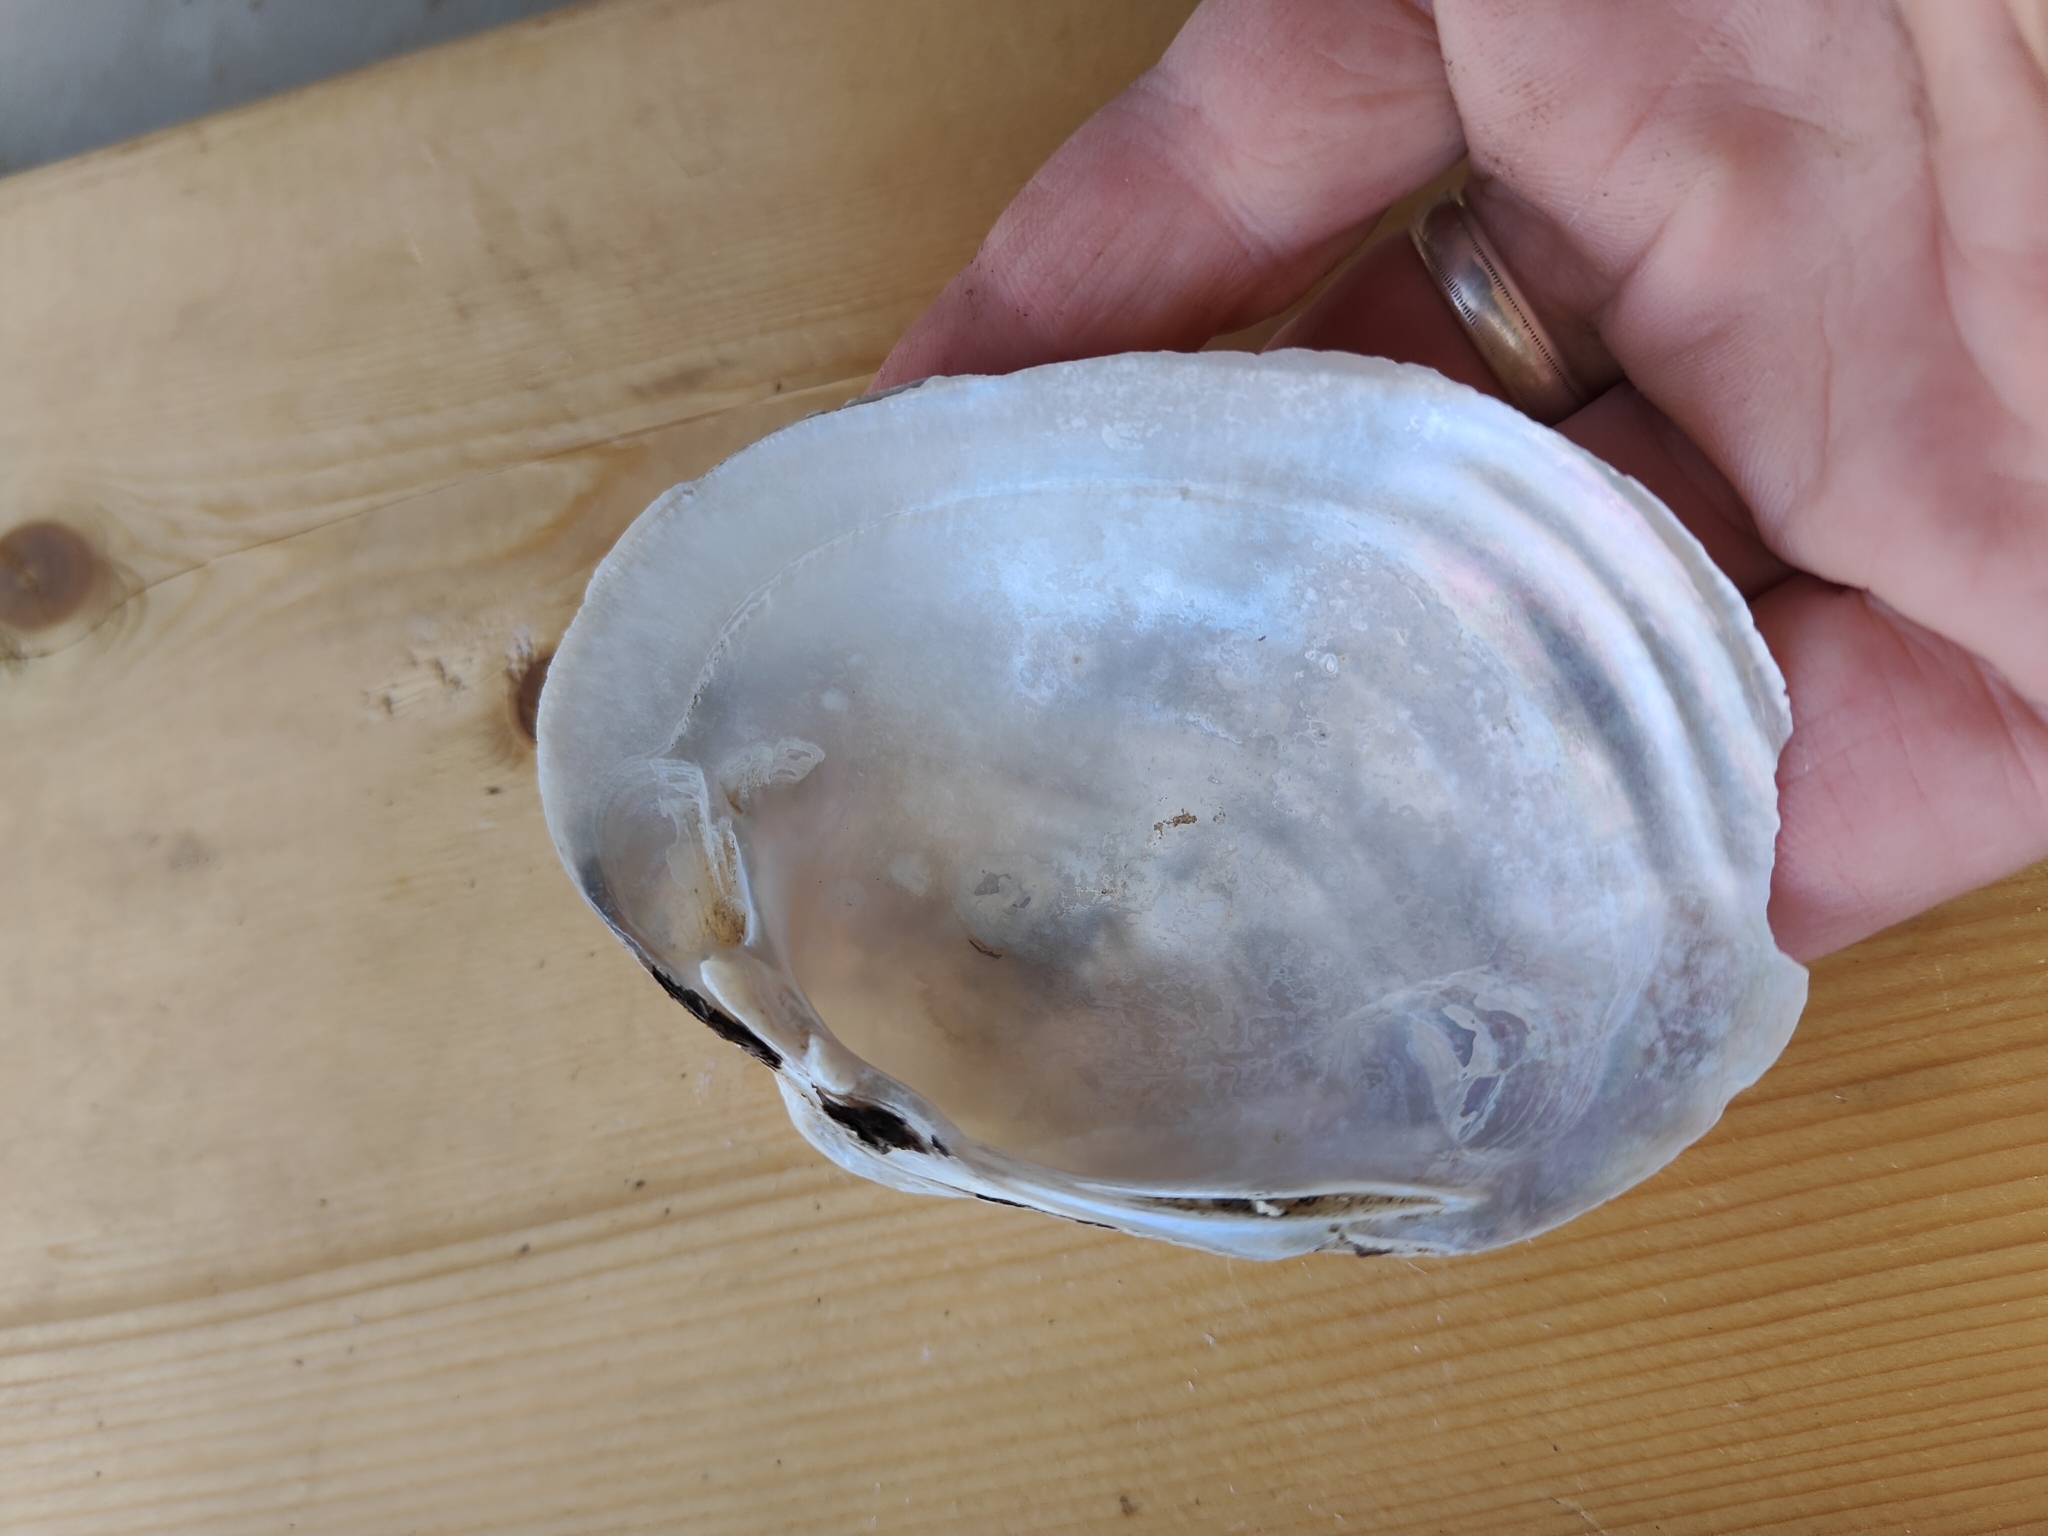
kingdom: Animalia
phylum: Mollusca
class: Bivalvia
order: Unionida
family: Unionidae
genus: Lampsilis
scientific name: Lampsilis cardium
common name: Plain pocketbook
